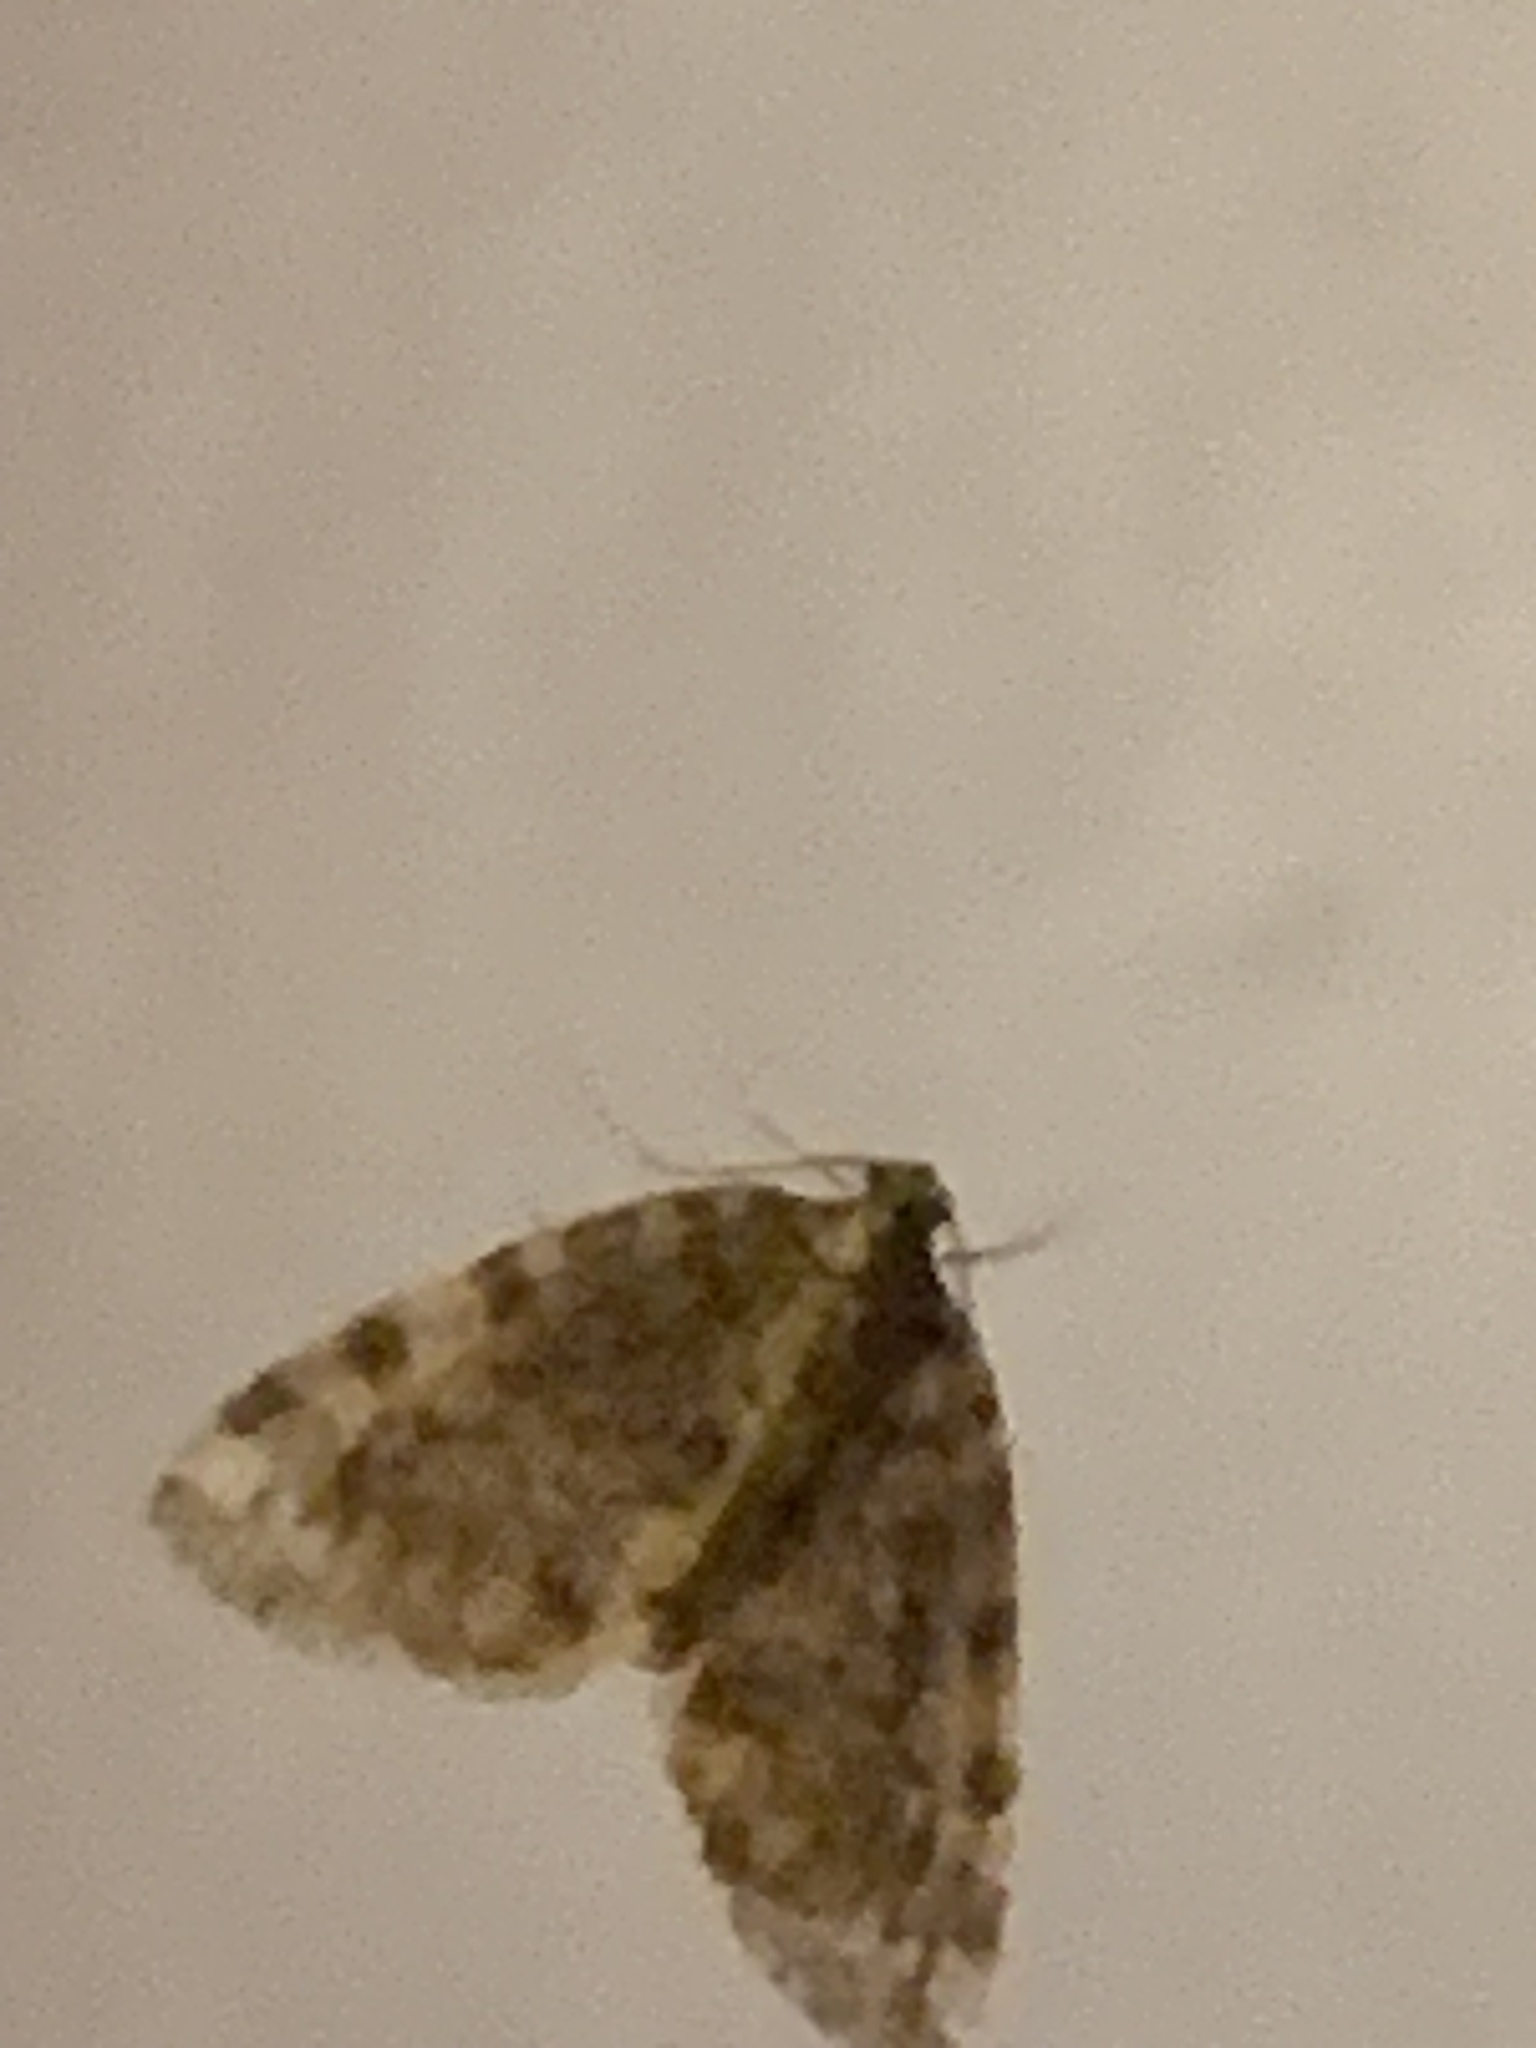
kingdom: Animalia
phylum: Arthropoda
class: Insecta
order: Lepidoptera
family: Geometridae
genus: Hydriomena
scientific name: Hydriomena nubilofasciata
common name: Oak winter highflier moth
